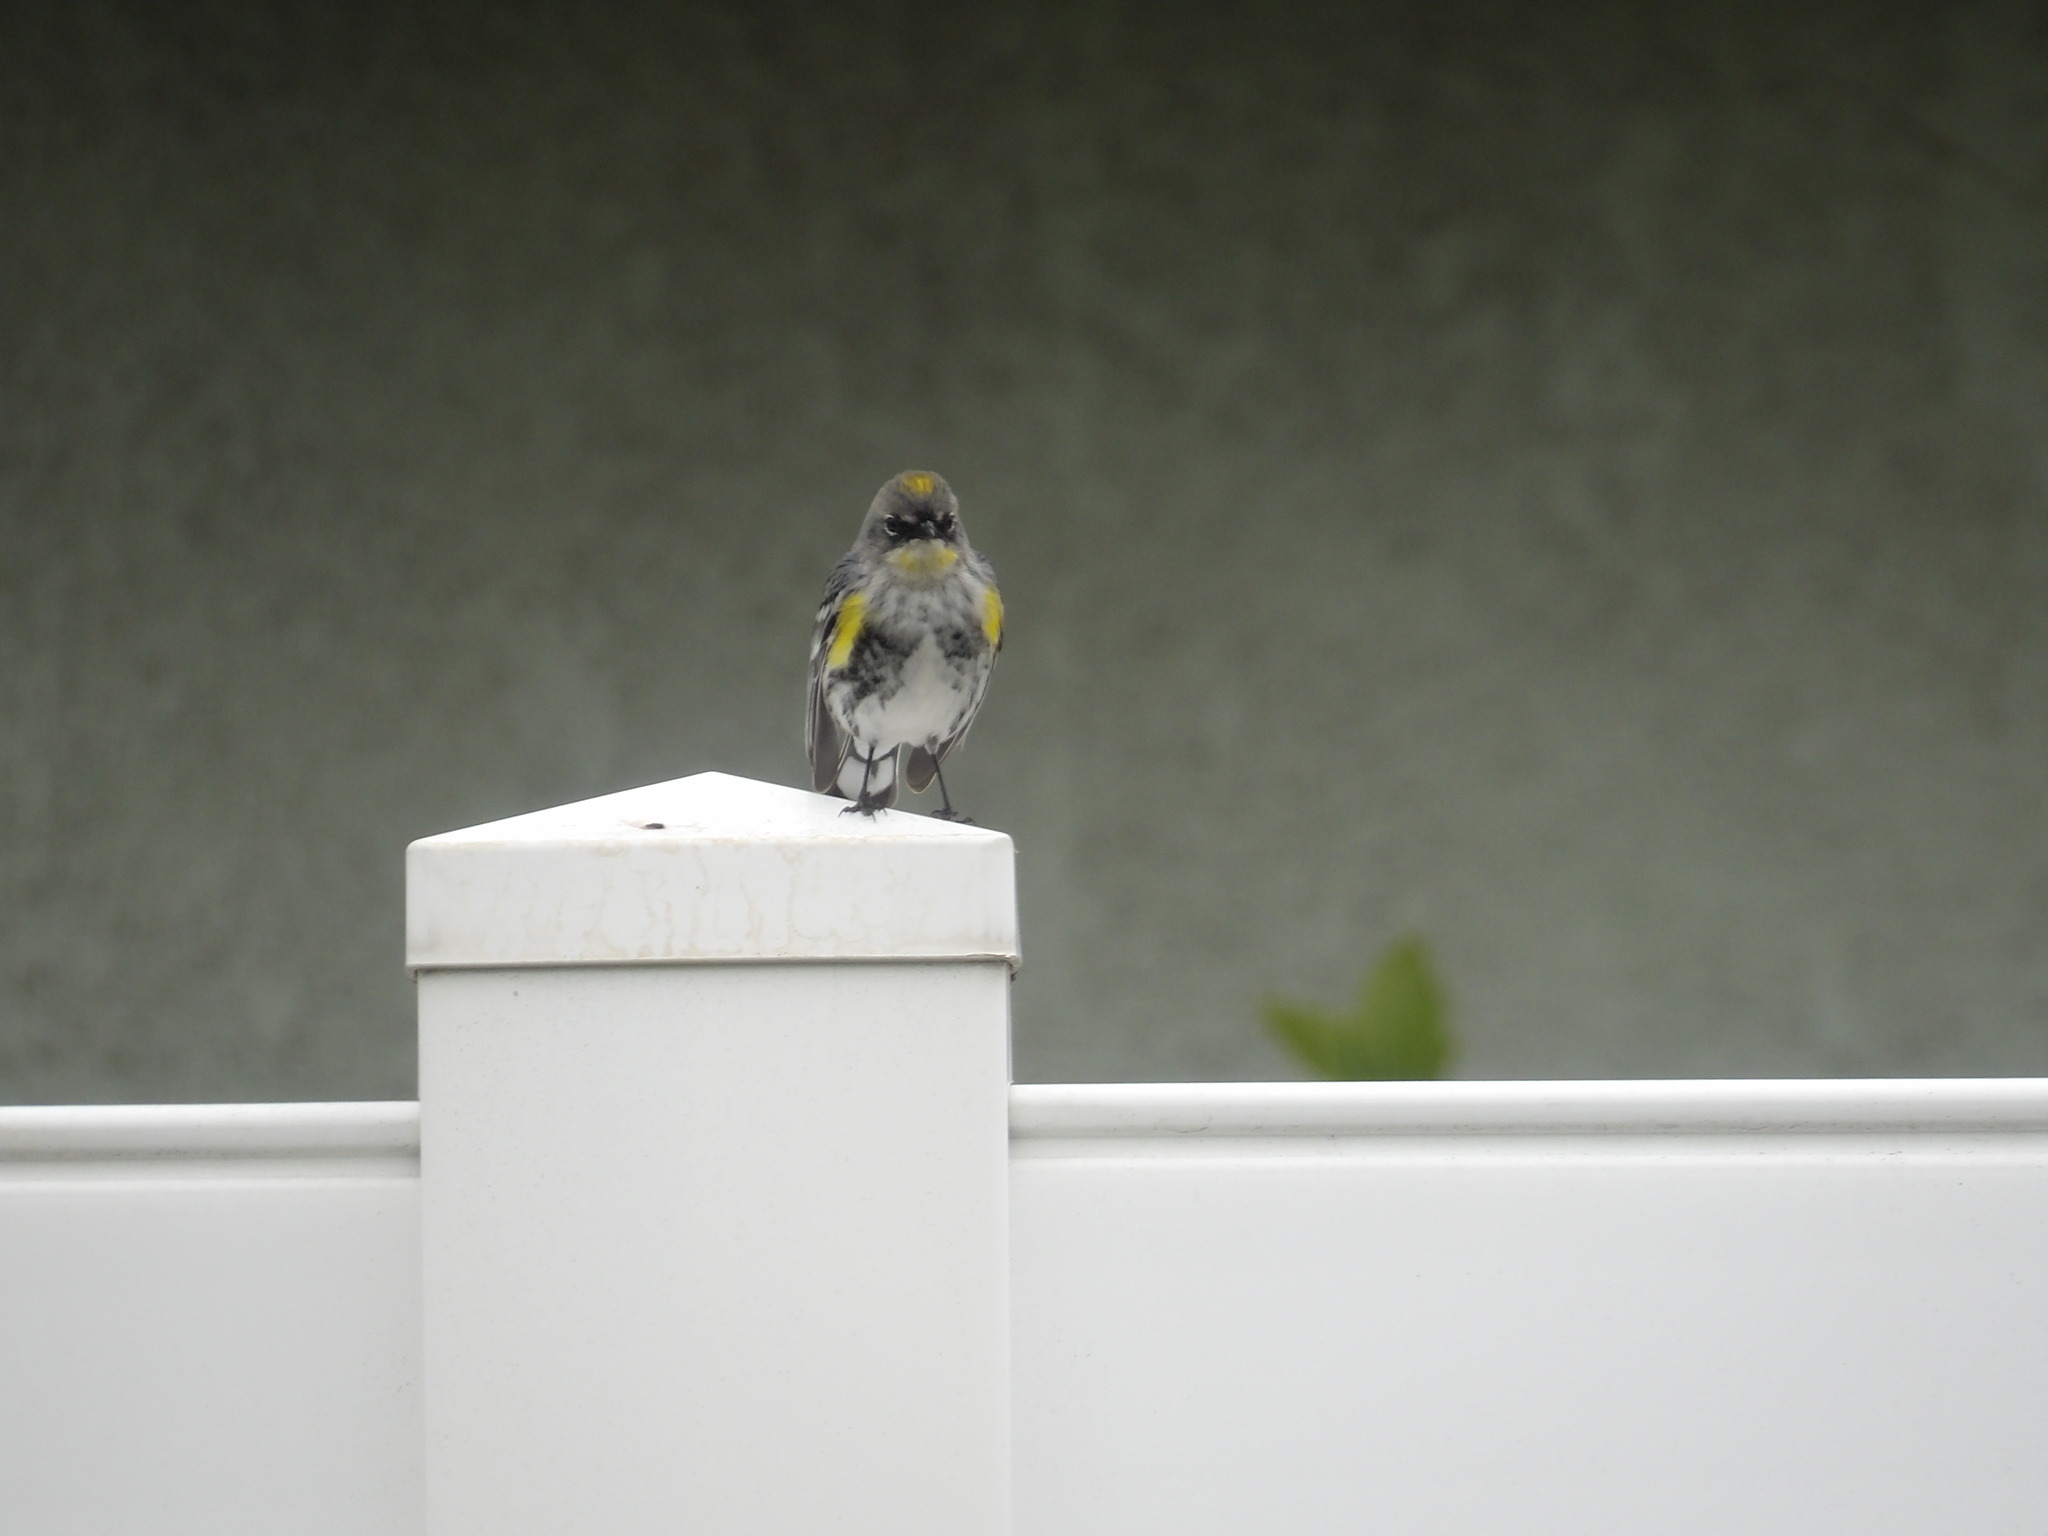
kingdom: Animalia
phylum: Chordata
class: Aves
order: Passeriformes
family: Parulidae
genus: Setophaga
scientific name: Setophaga coronata
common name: Myrtle warbler
